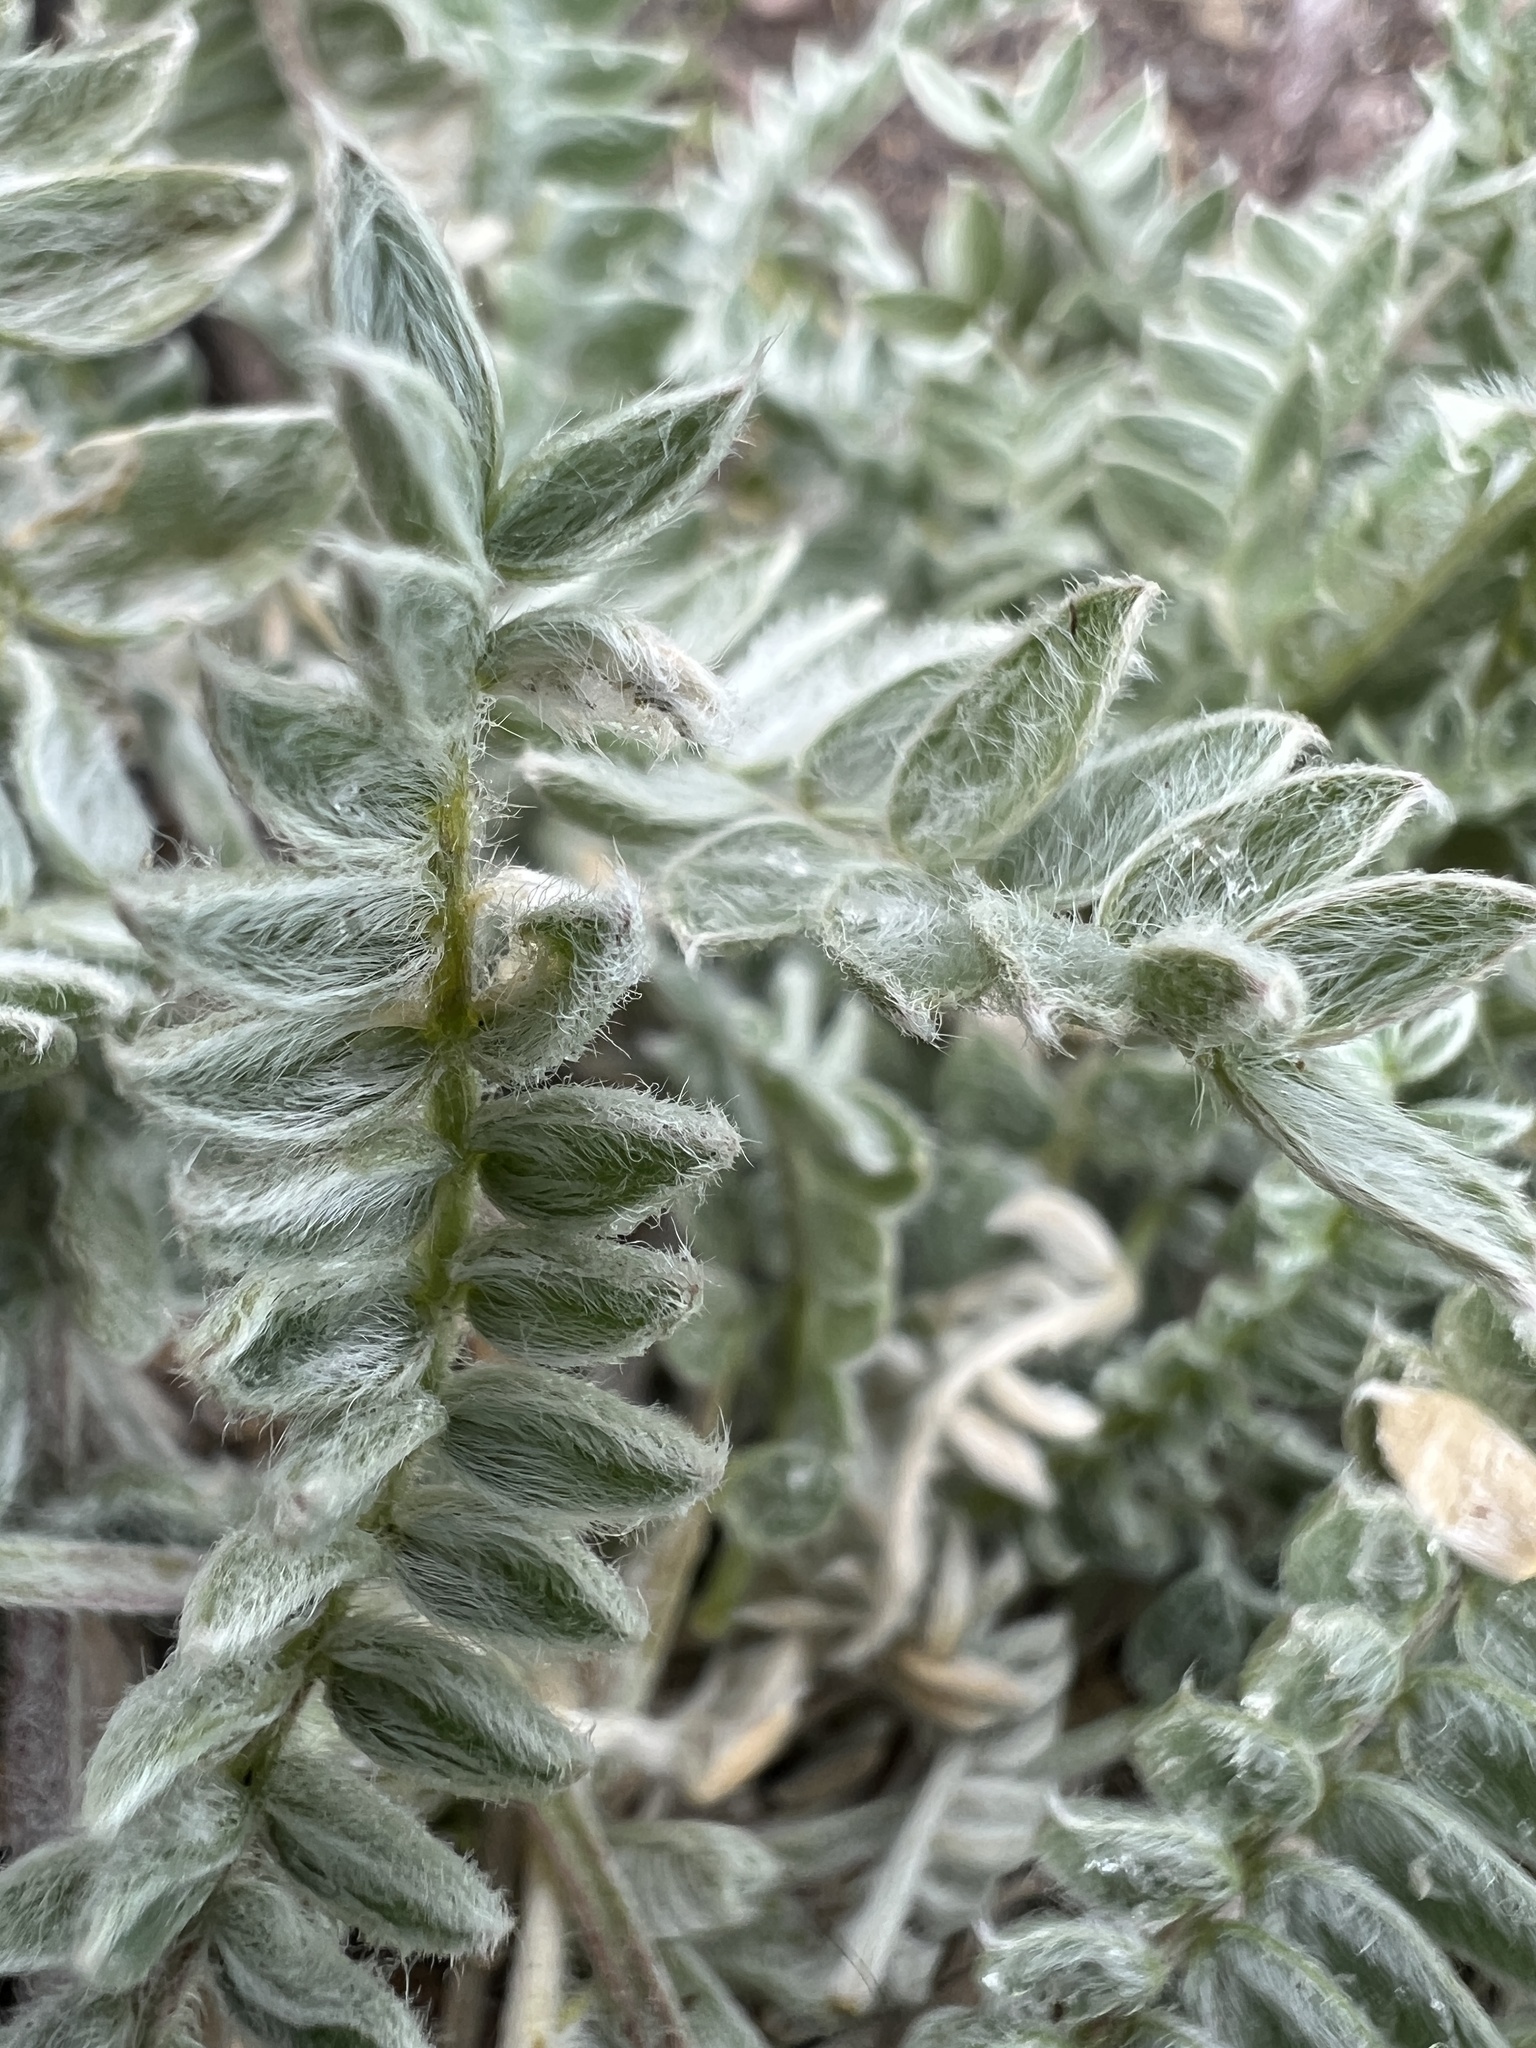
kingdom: Plantae
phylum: Tracheophyta
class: Magnoliopsida
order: Fabales
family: Fabaceae
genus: Oxytropis
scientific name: Oxytropis campestris
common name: Field locoweed
